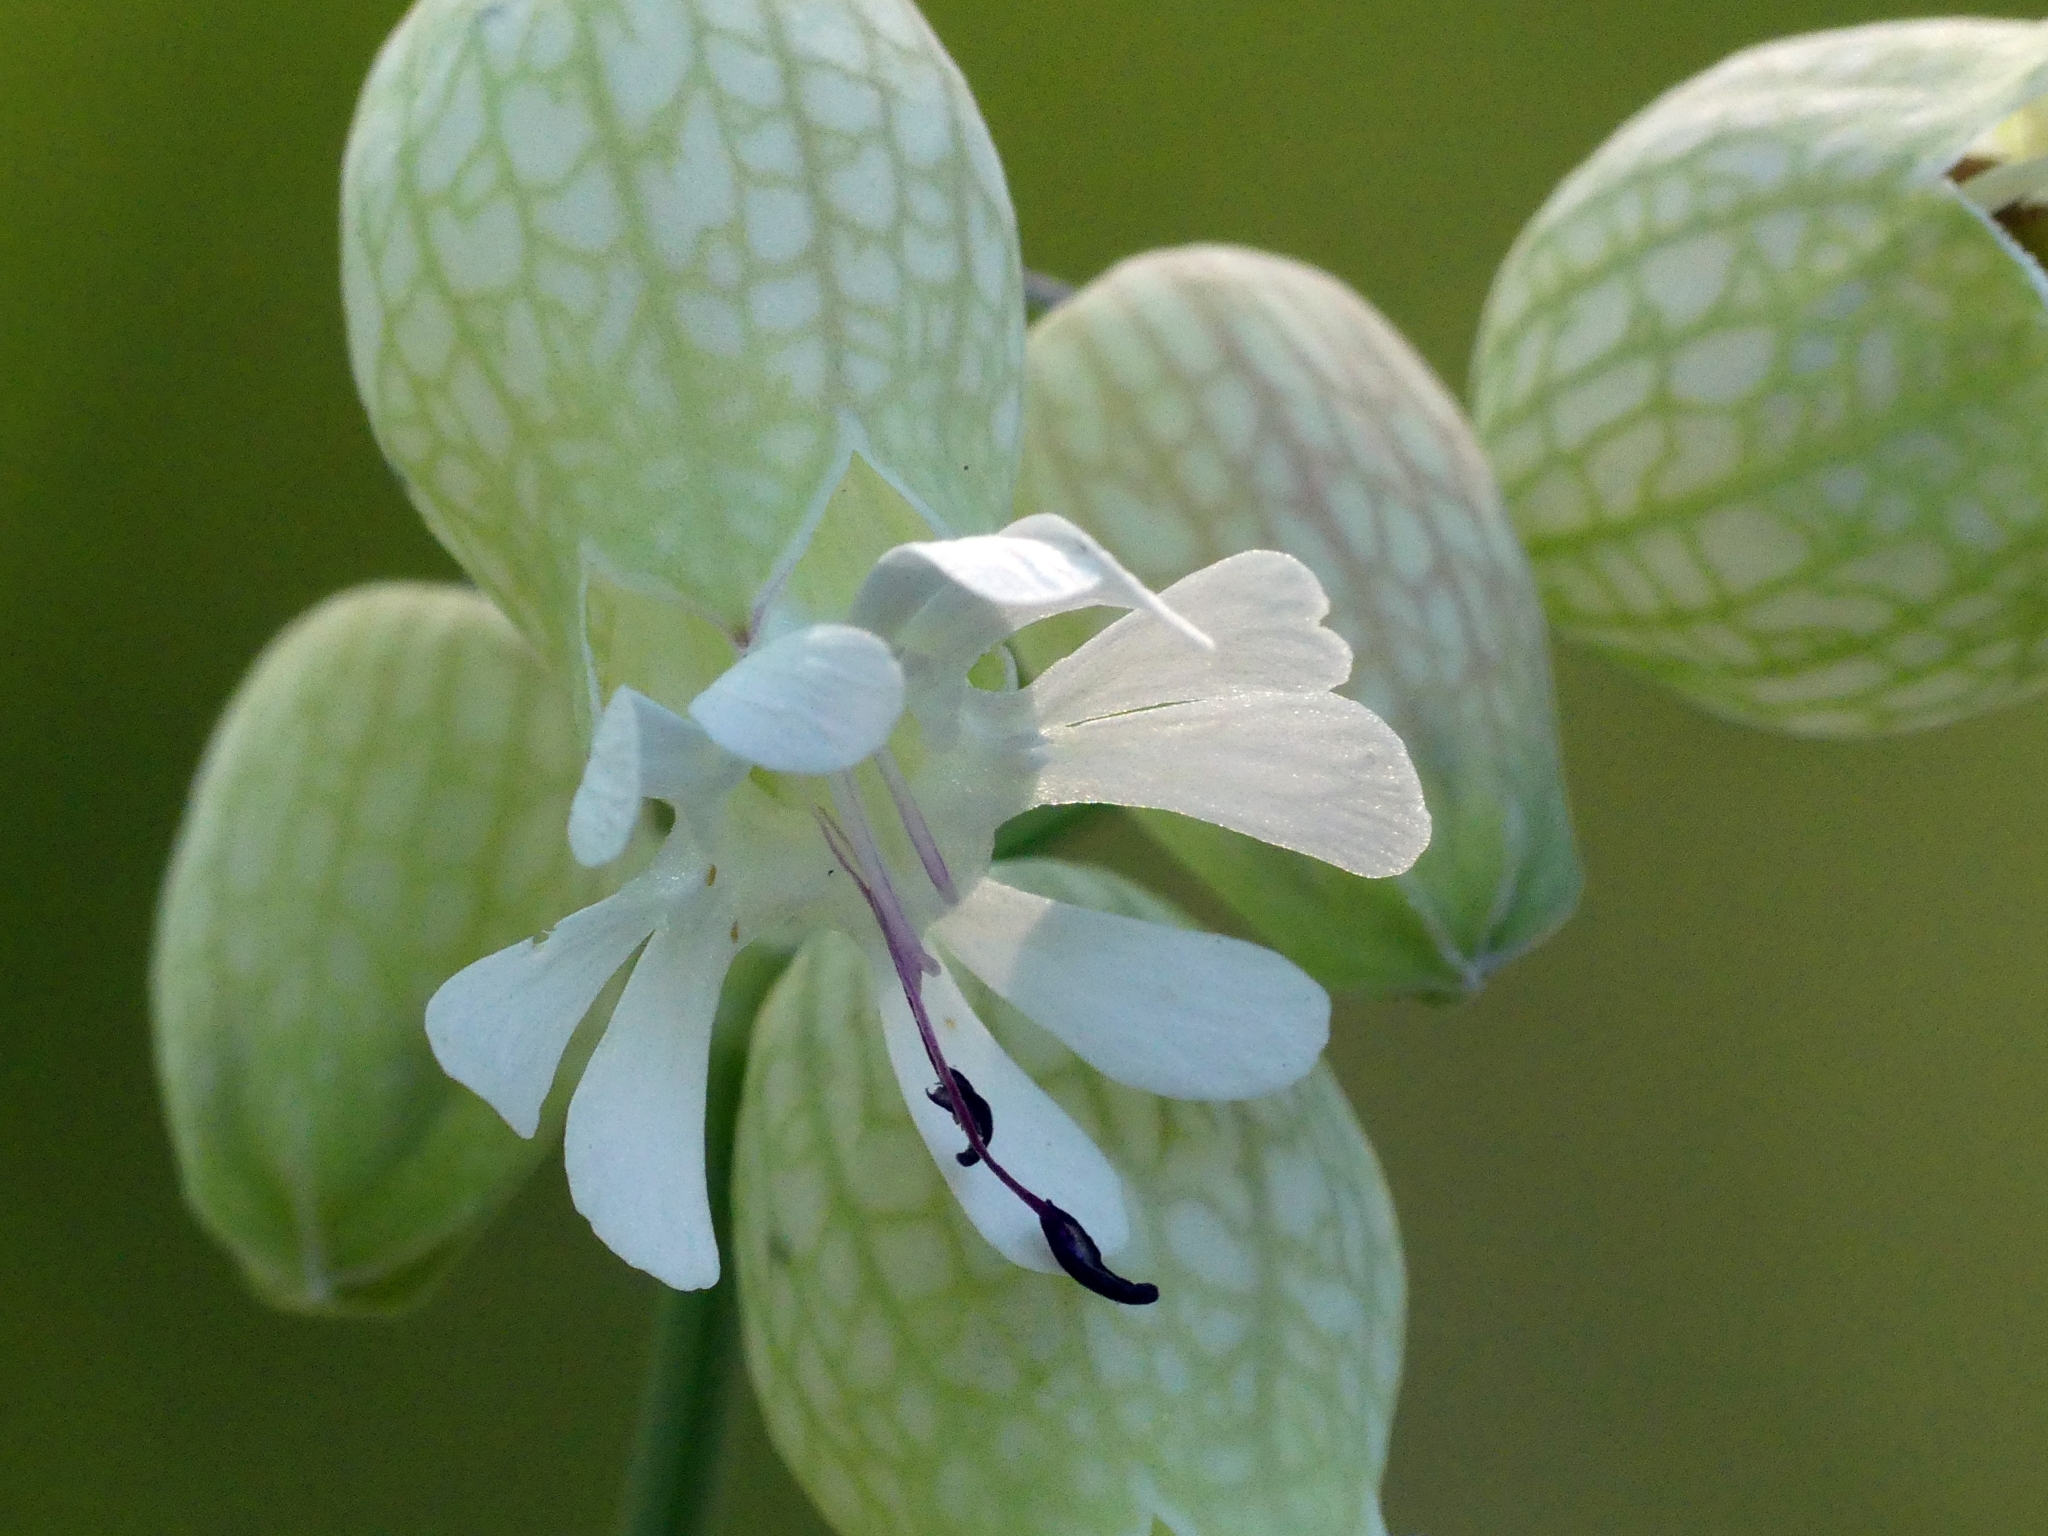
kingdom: Plantae
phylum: Tracheophyta
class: Magnoliopsida
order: Caryophyllales
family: Caryophyllaceae
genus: Silene
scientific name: Silene vulgaris
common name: Bladder campion
